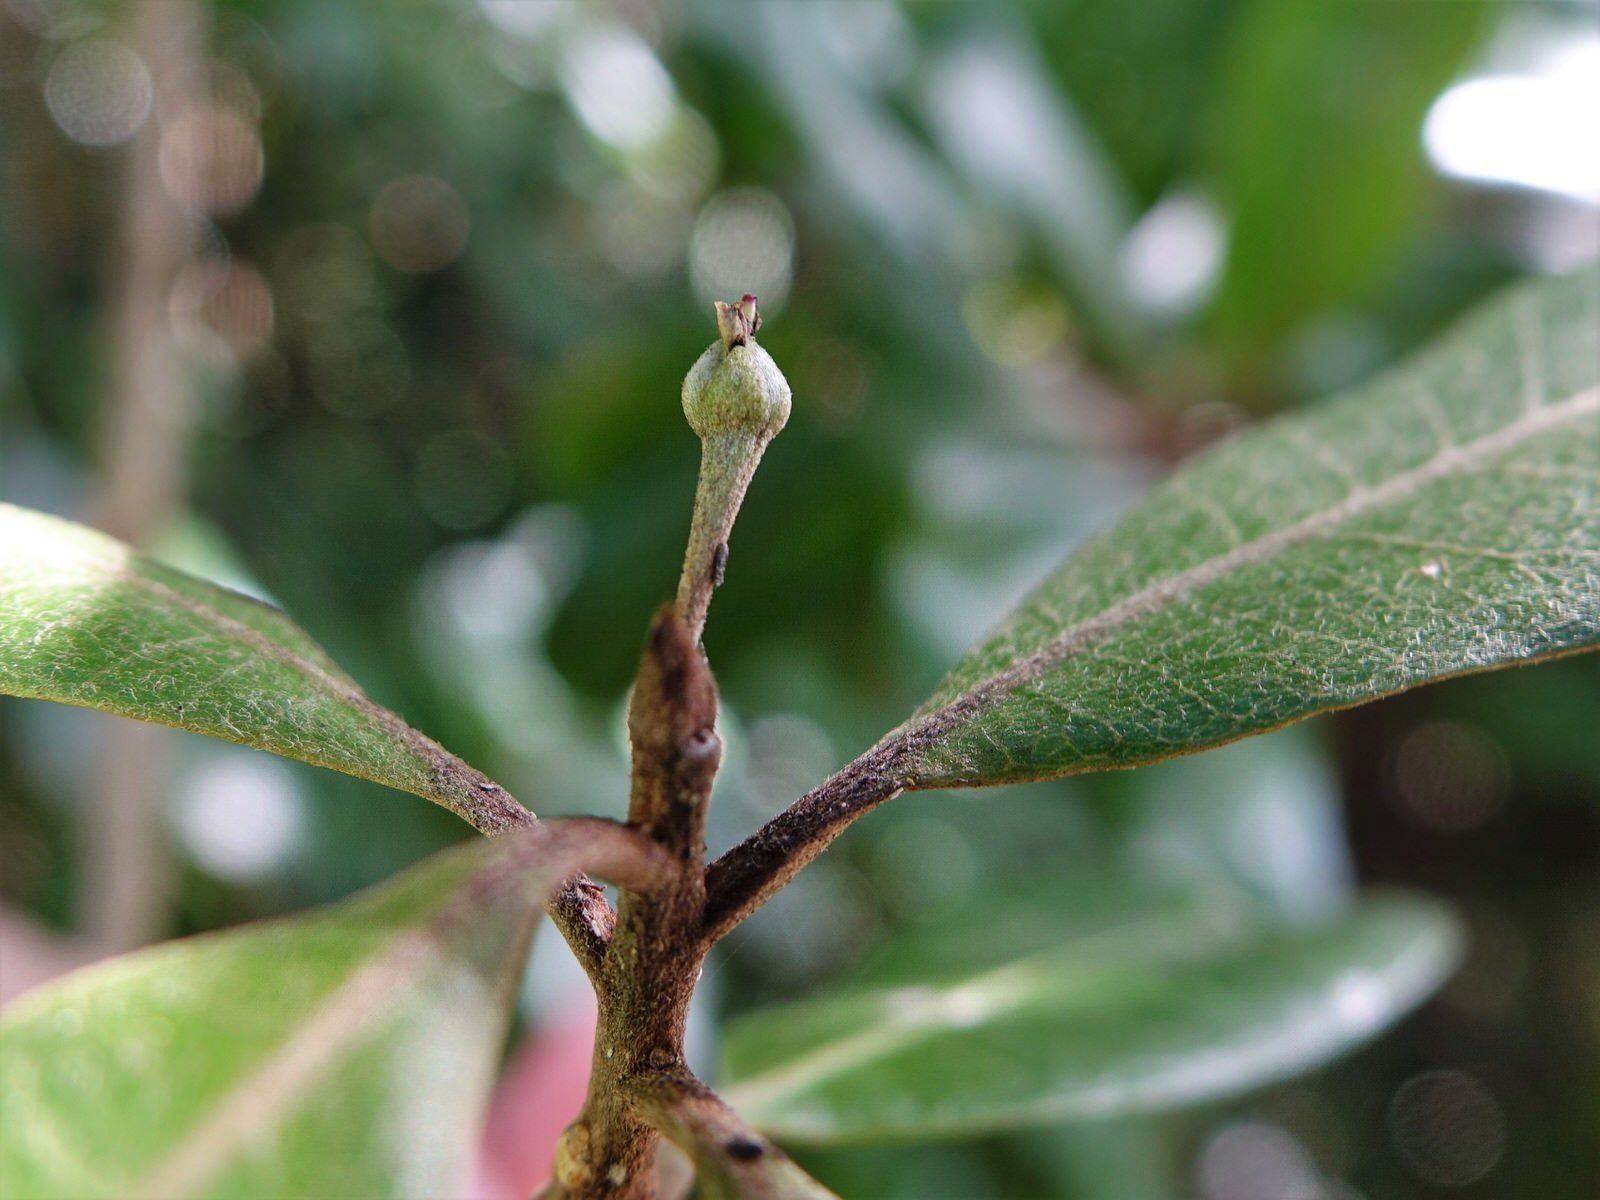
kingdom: Plantae
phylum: Tracheophyta
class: Magnoliopsida
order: Ericales
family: Sapotaceae
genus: Planchonella
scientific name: Planchonella costata
